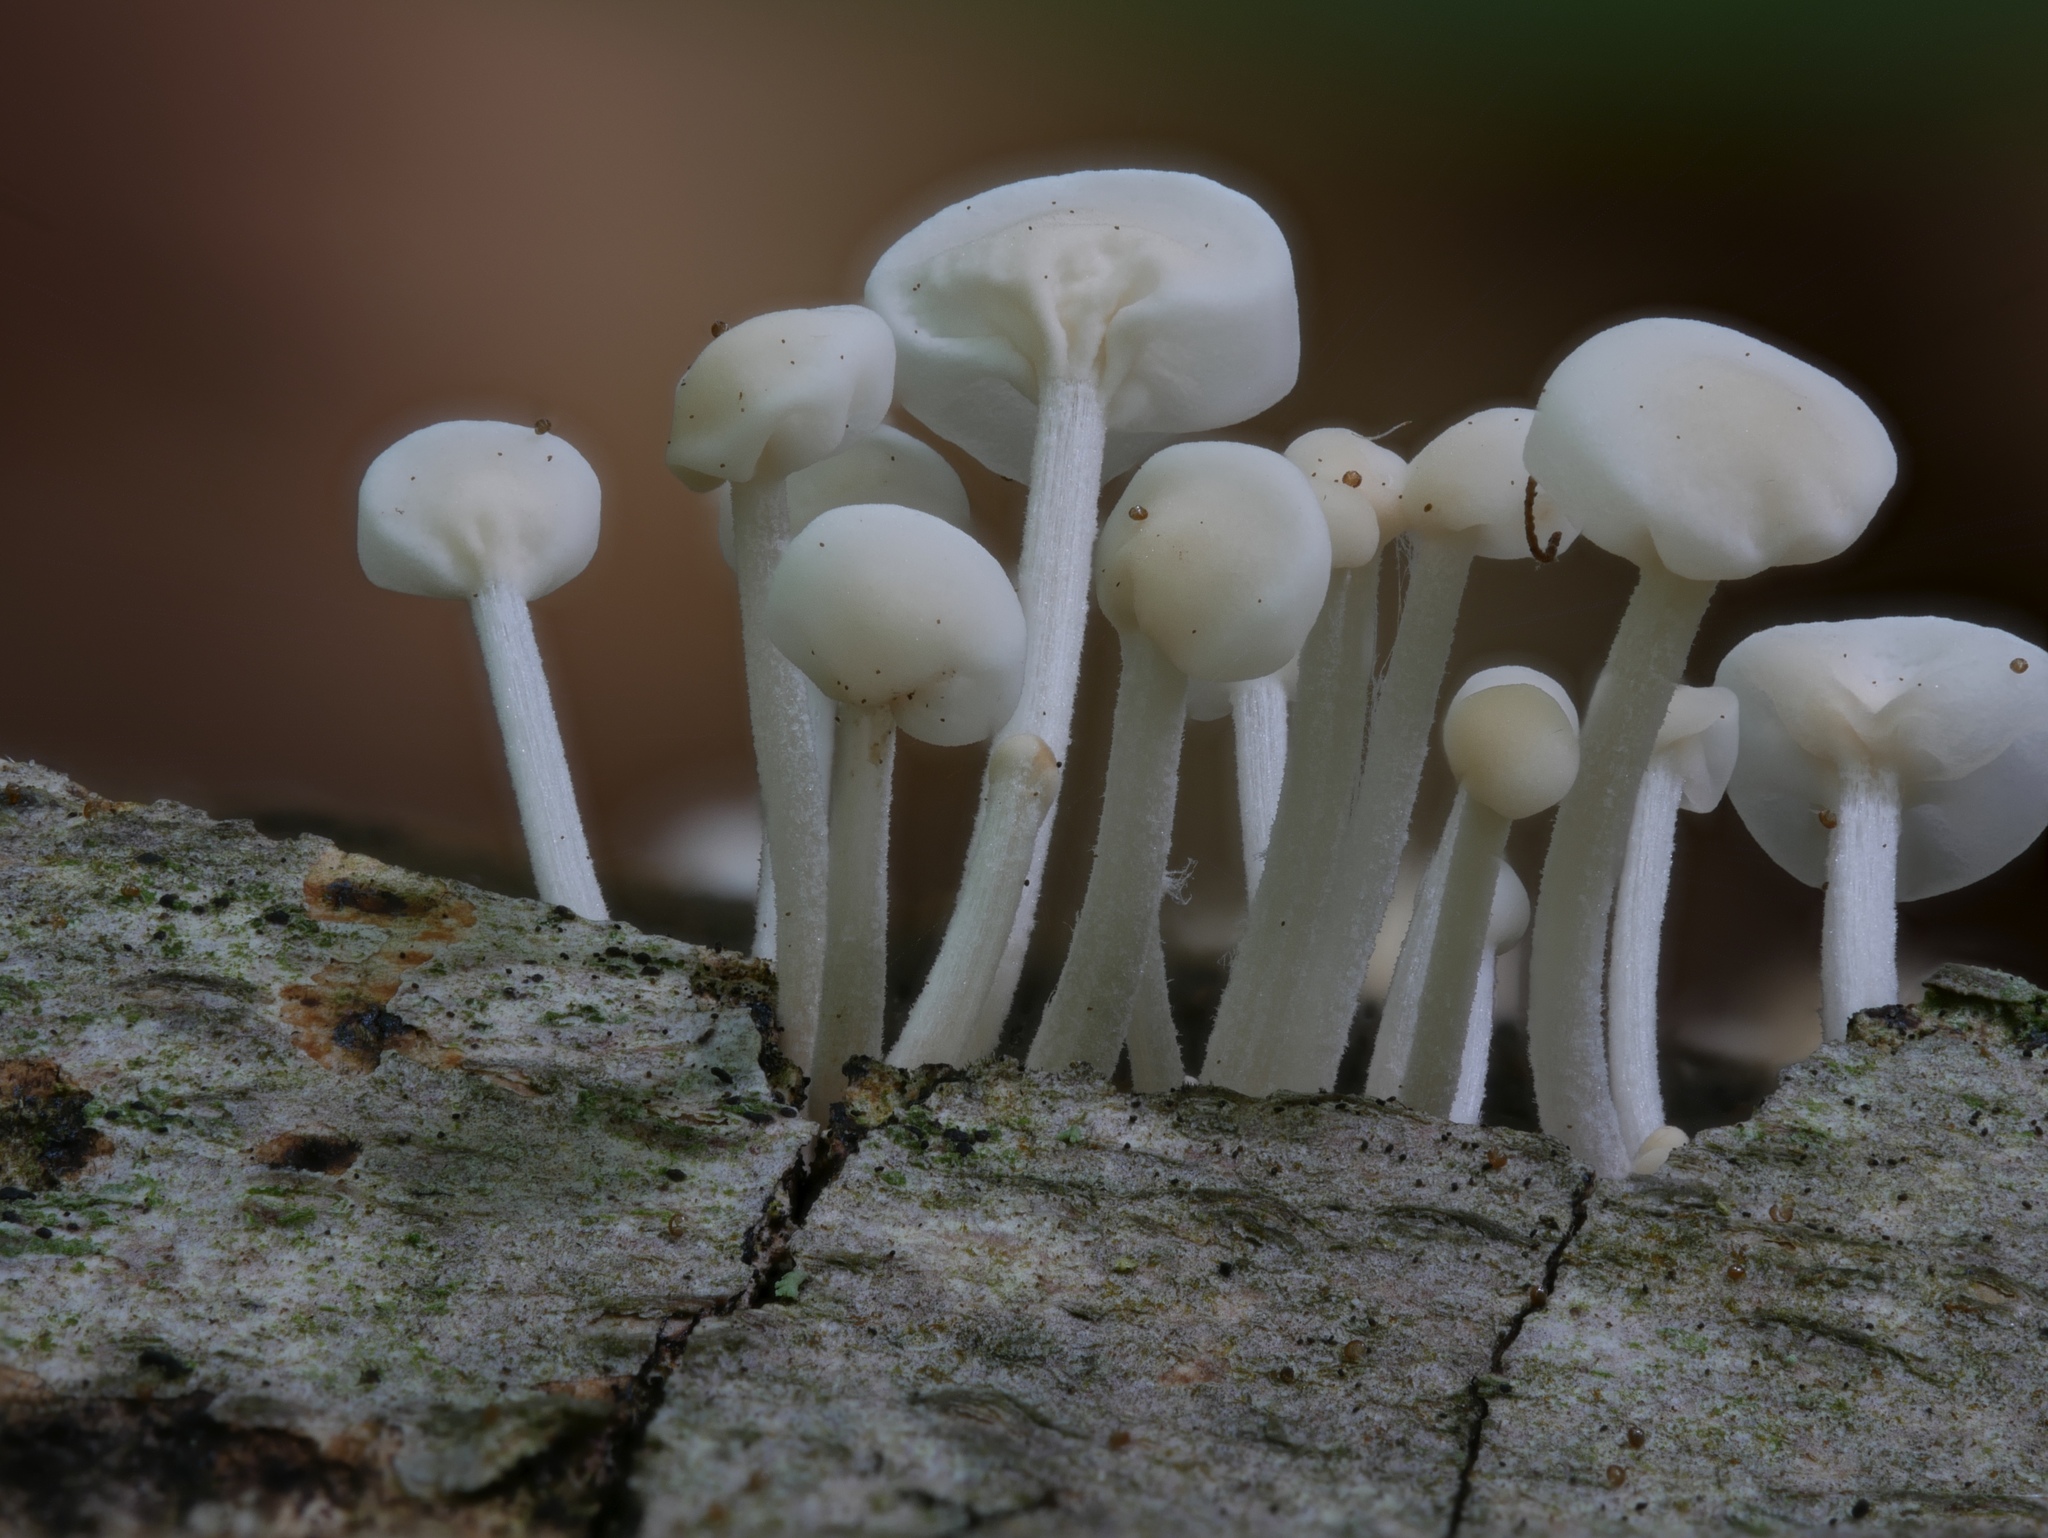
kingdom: Fungi
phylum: Basidiomycota
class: Agaricomycetes
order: Agaricales
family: Physalacriaceae
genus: Physalacria
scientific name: Physalacria inflata
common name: Bladder stalks
